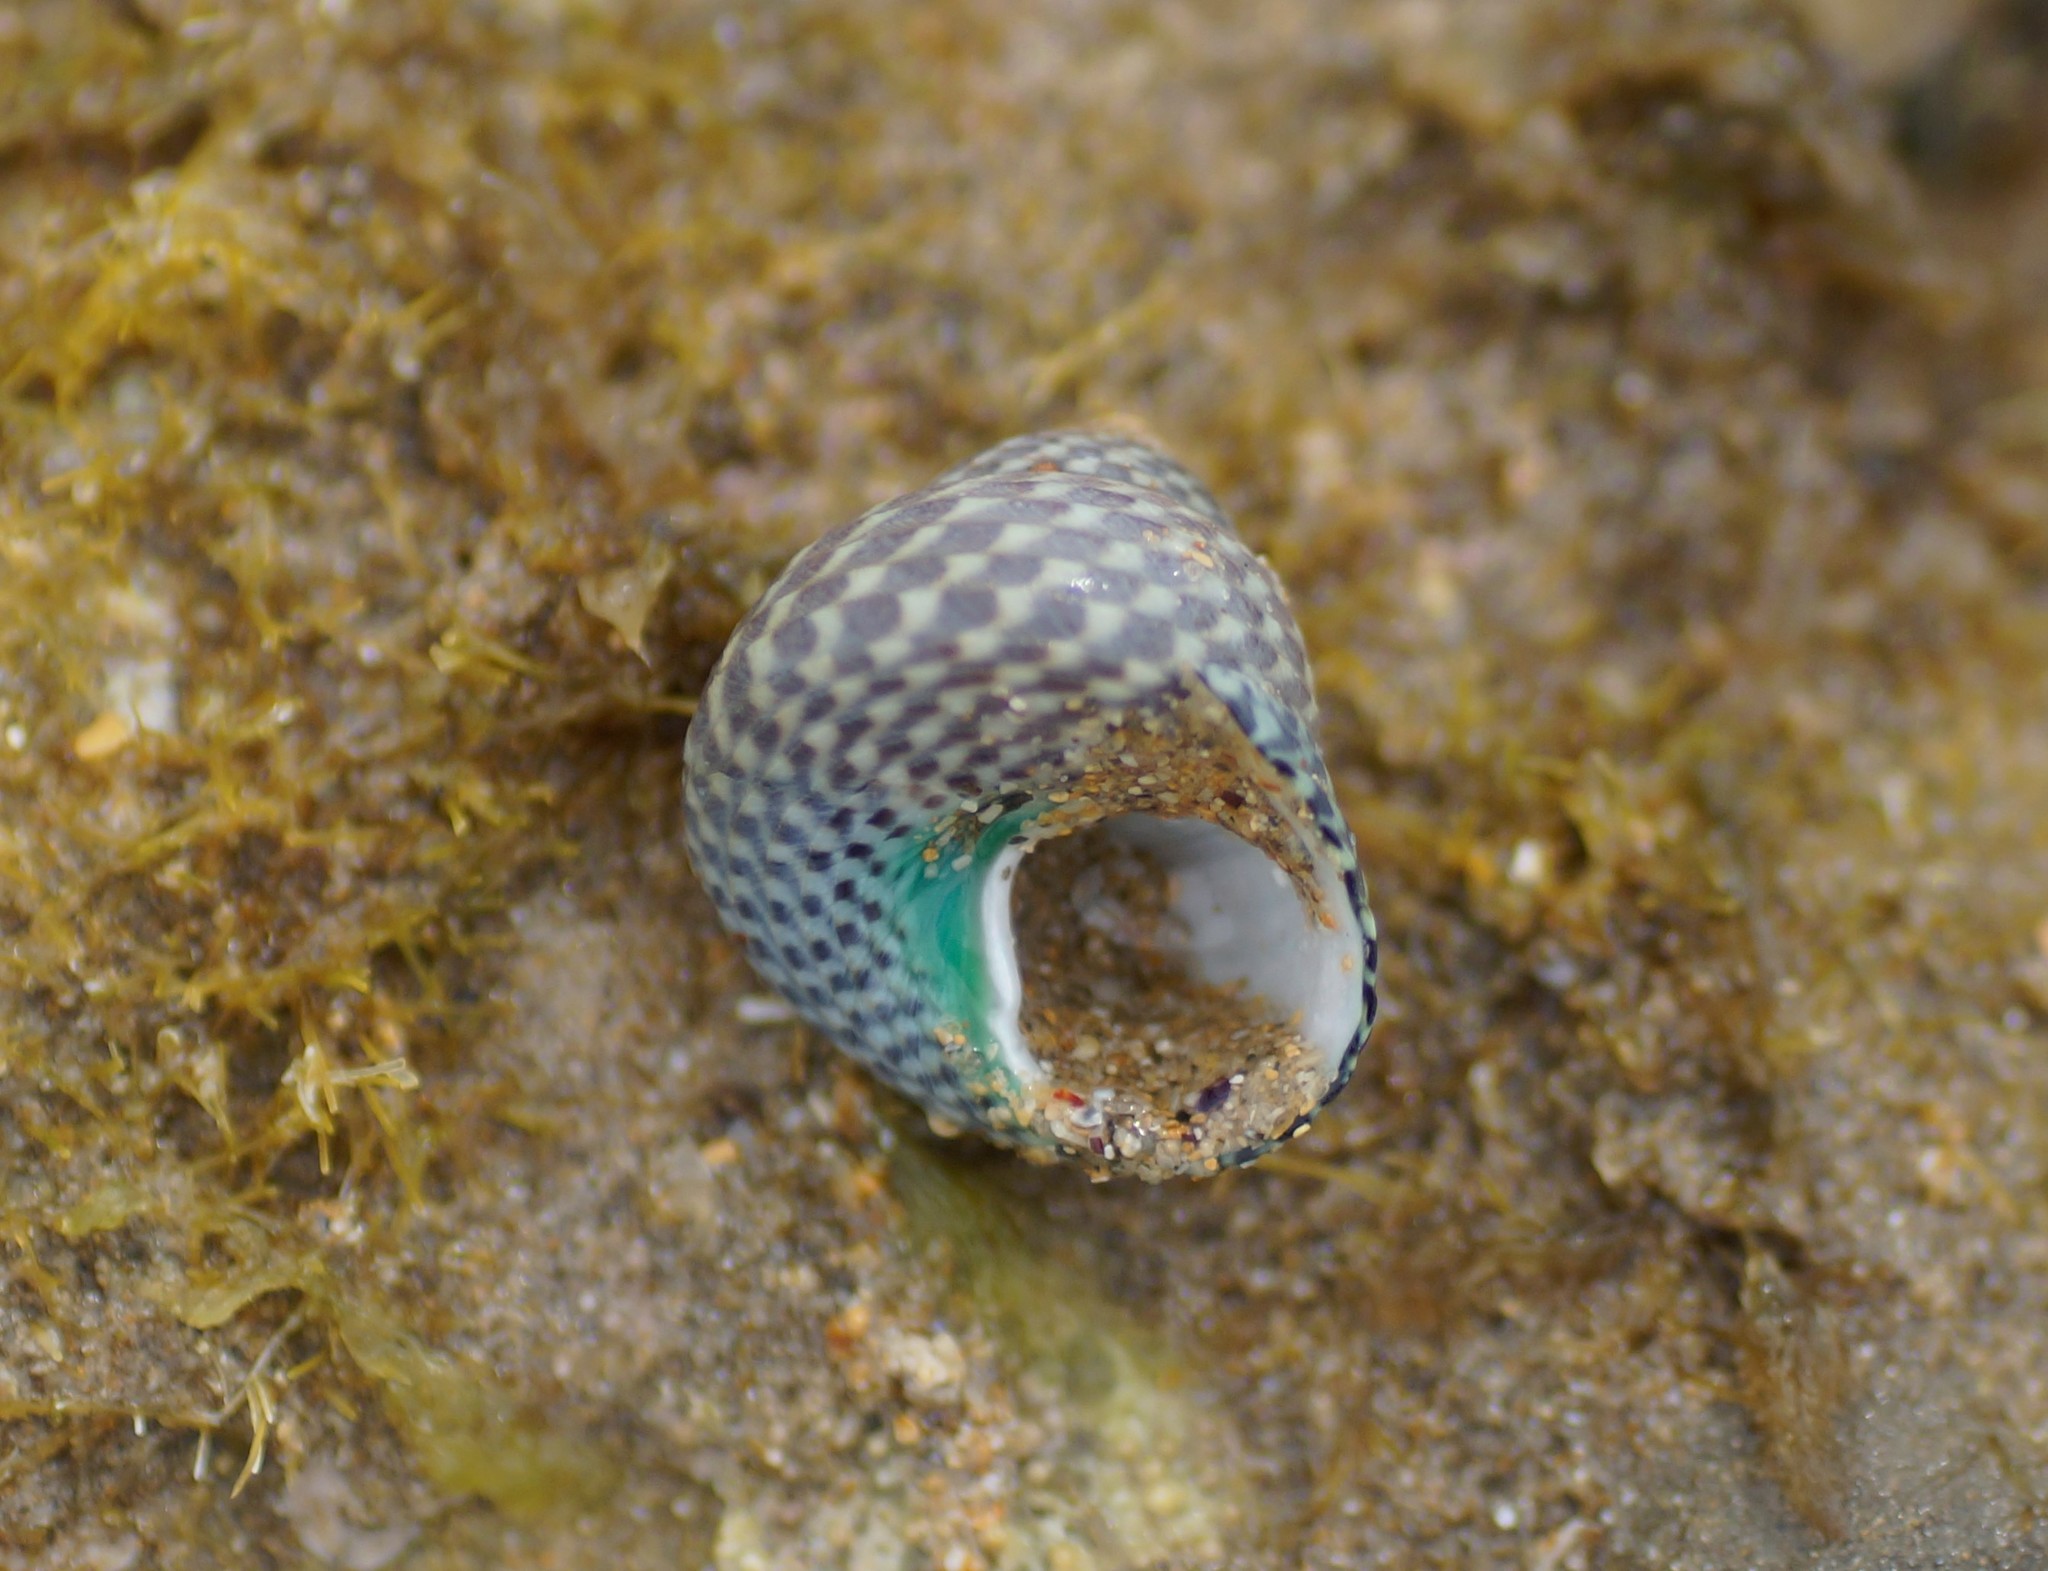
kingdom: Animalia
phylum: Mollusca
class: Gastropoda
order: Trochida
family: Trochidae
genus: Chlorodiloma
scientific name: Chlorodiloma adelaidae
